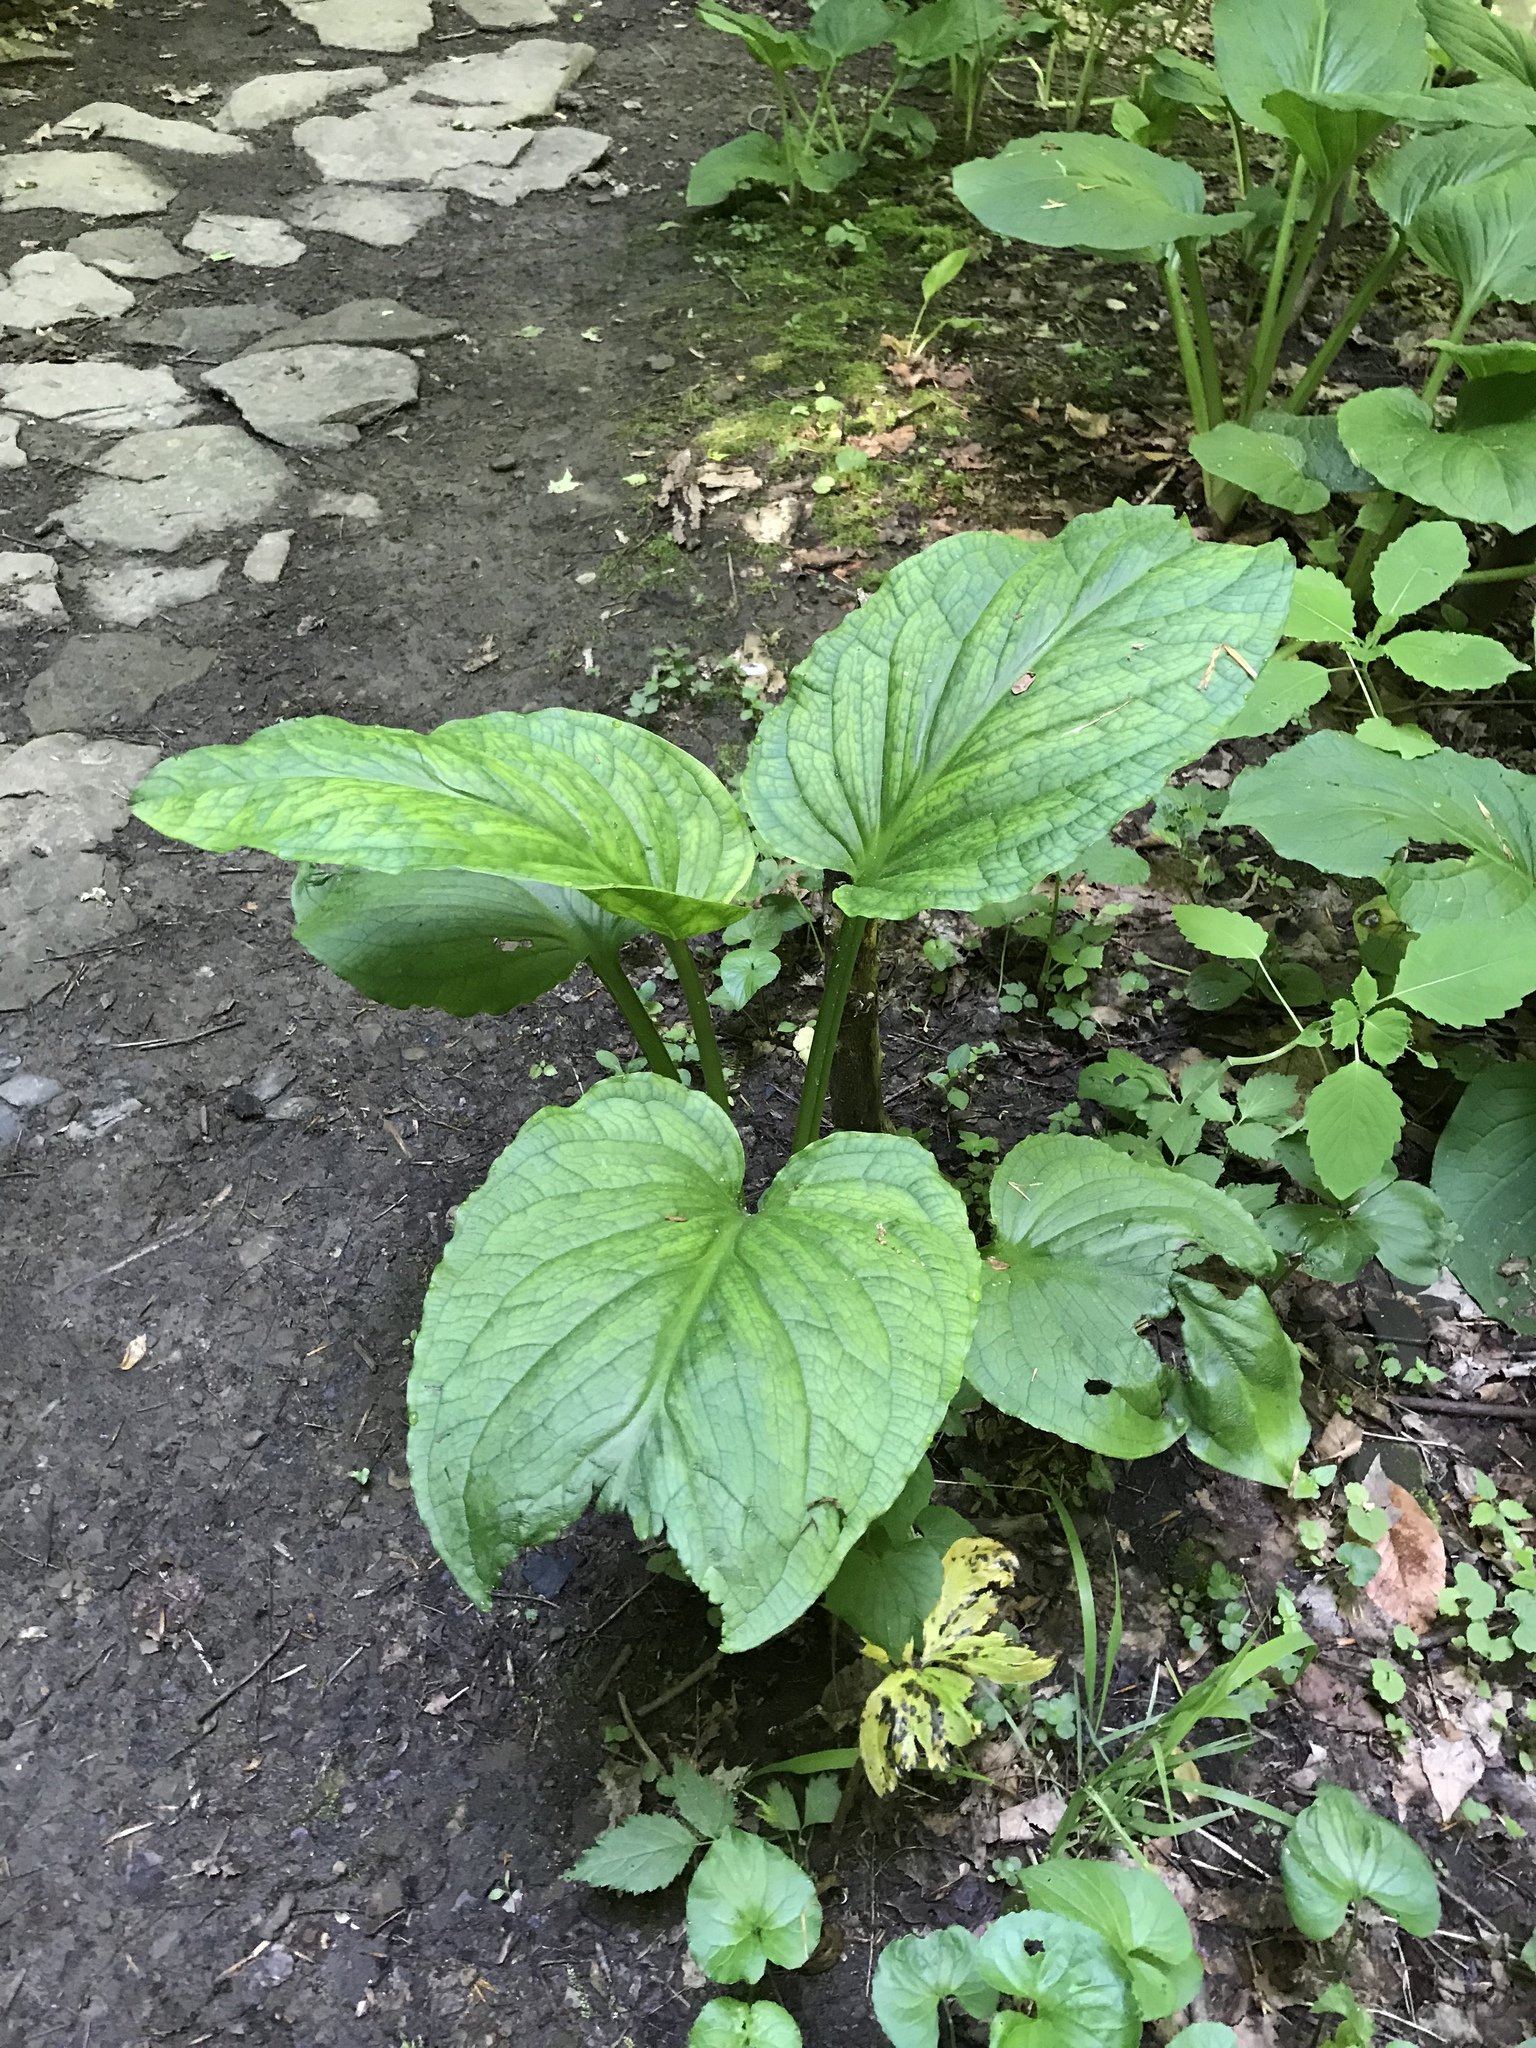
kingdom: Plantae
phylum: Tracheophyta
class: Liliopsida
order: Alismatales
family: Araceae
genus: Symplocarpus
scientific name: Symplocarpus foetidus
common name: Eastern skunk cabbage
